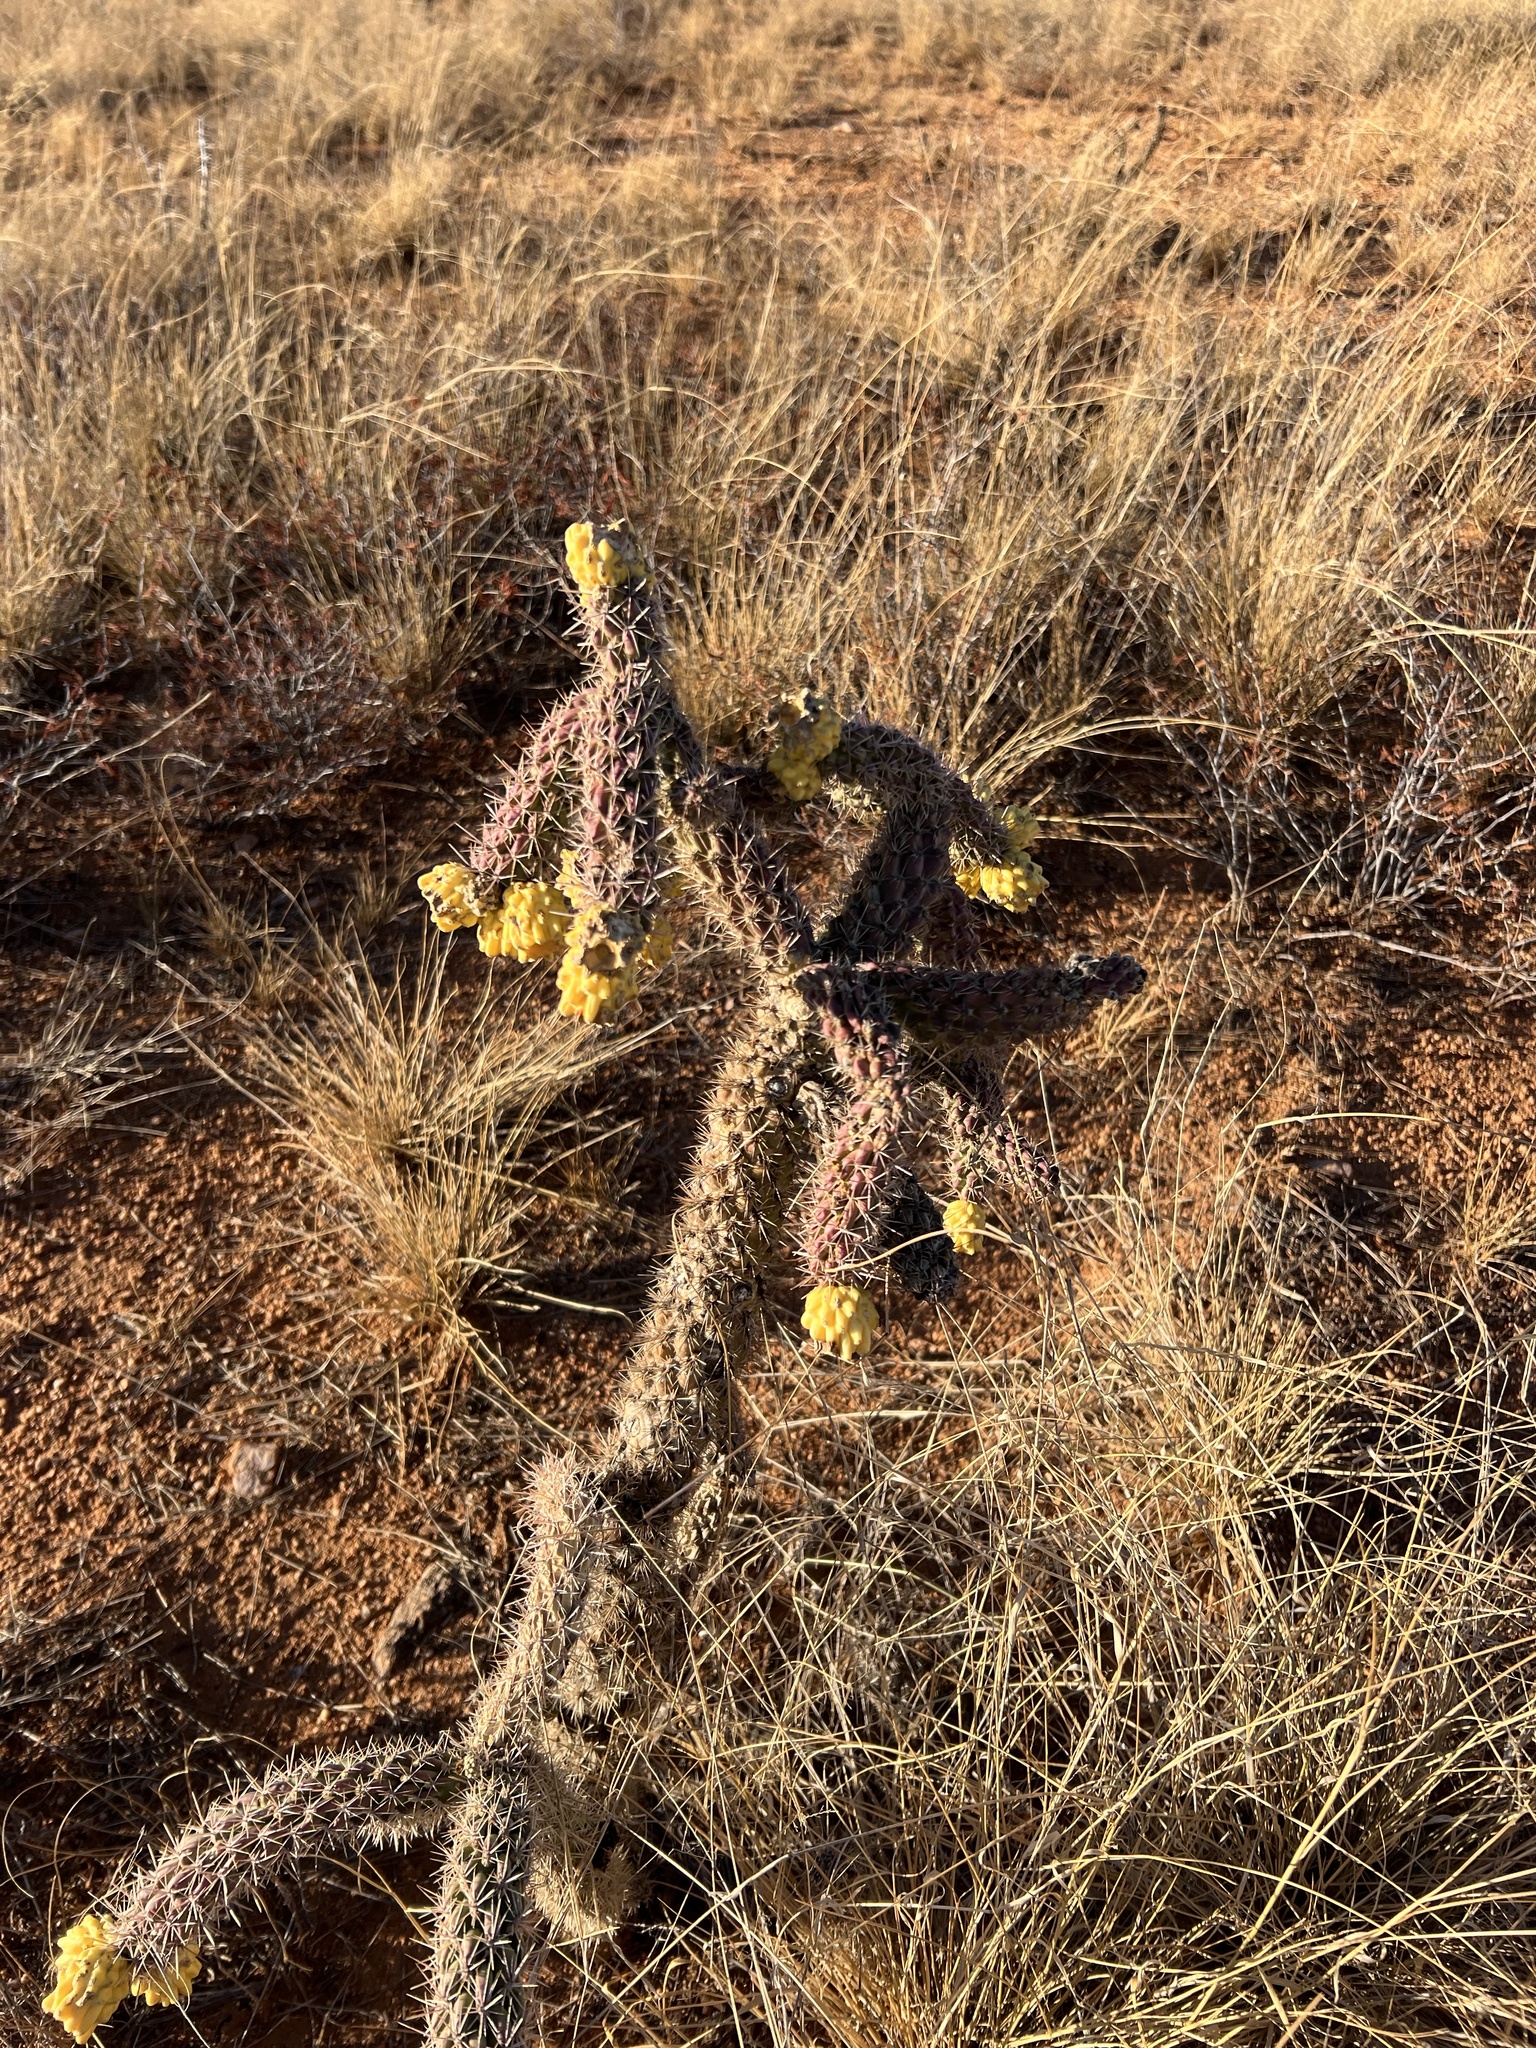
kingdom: Plantae
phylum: Tracheophyta
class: Magnoliopsida
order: Caryophyllales
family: Cactaceae
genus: Cylindropuntia
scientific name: Cylindropuntia imbricata
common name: Candelabrum cactus
